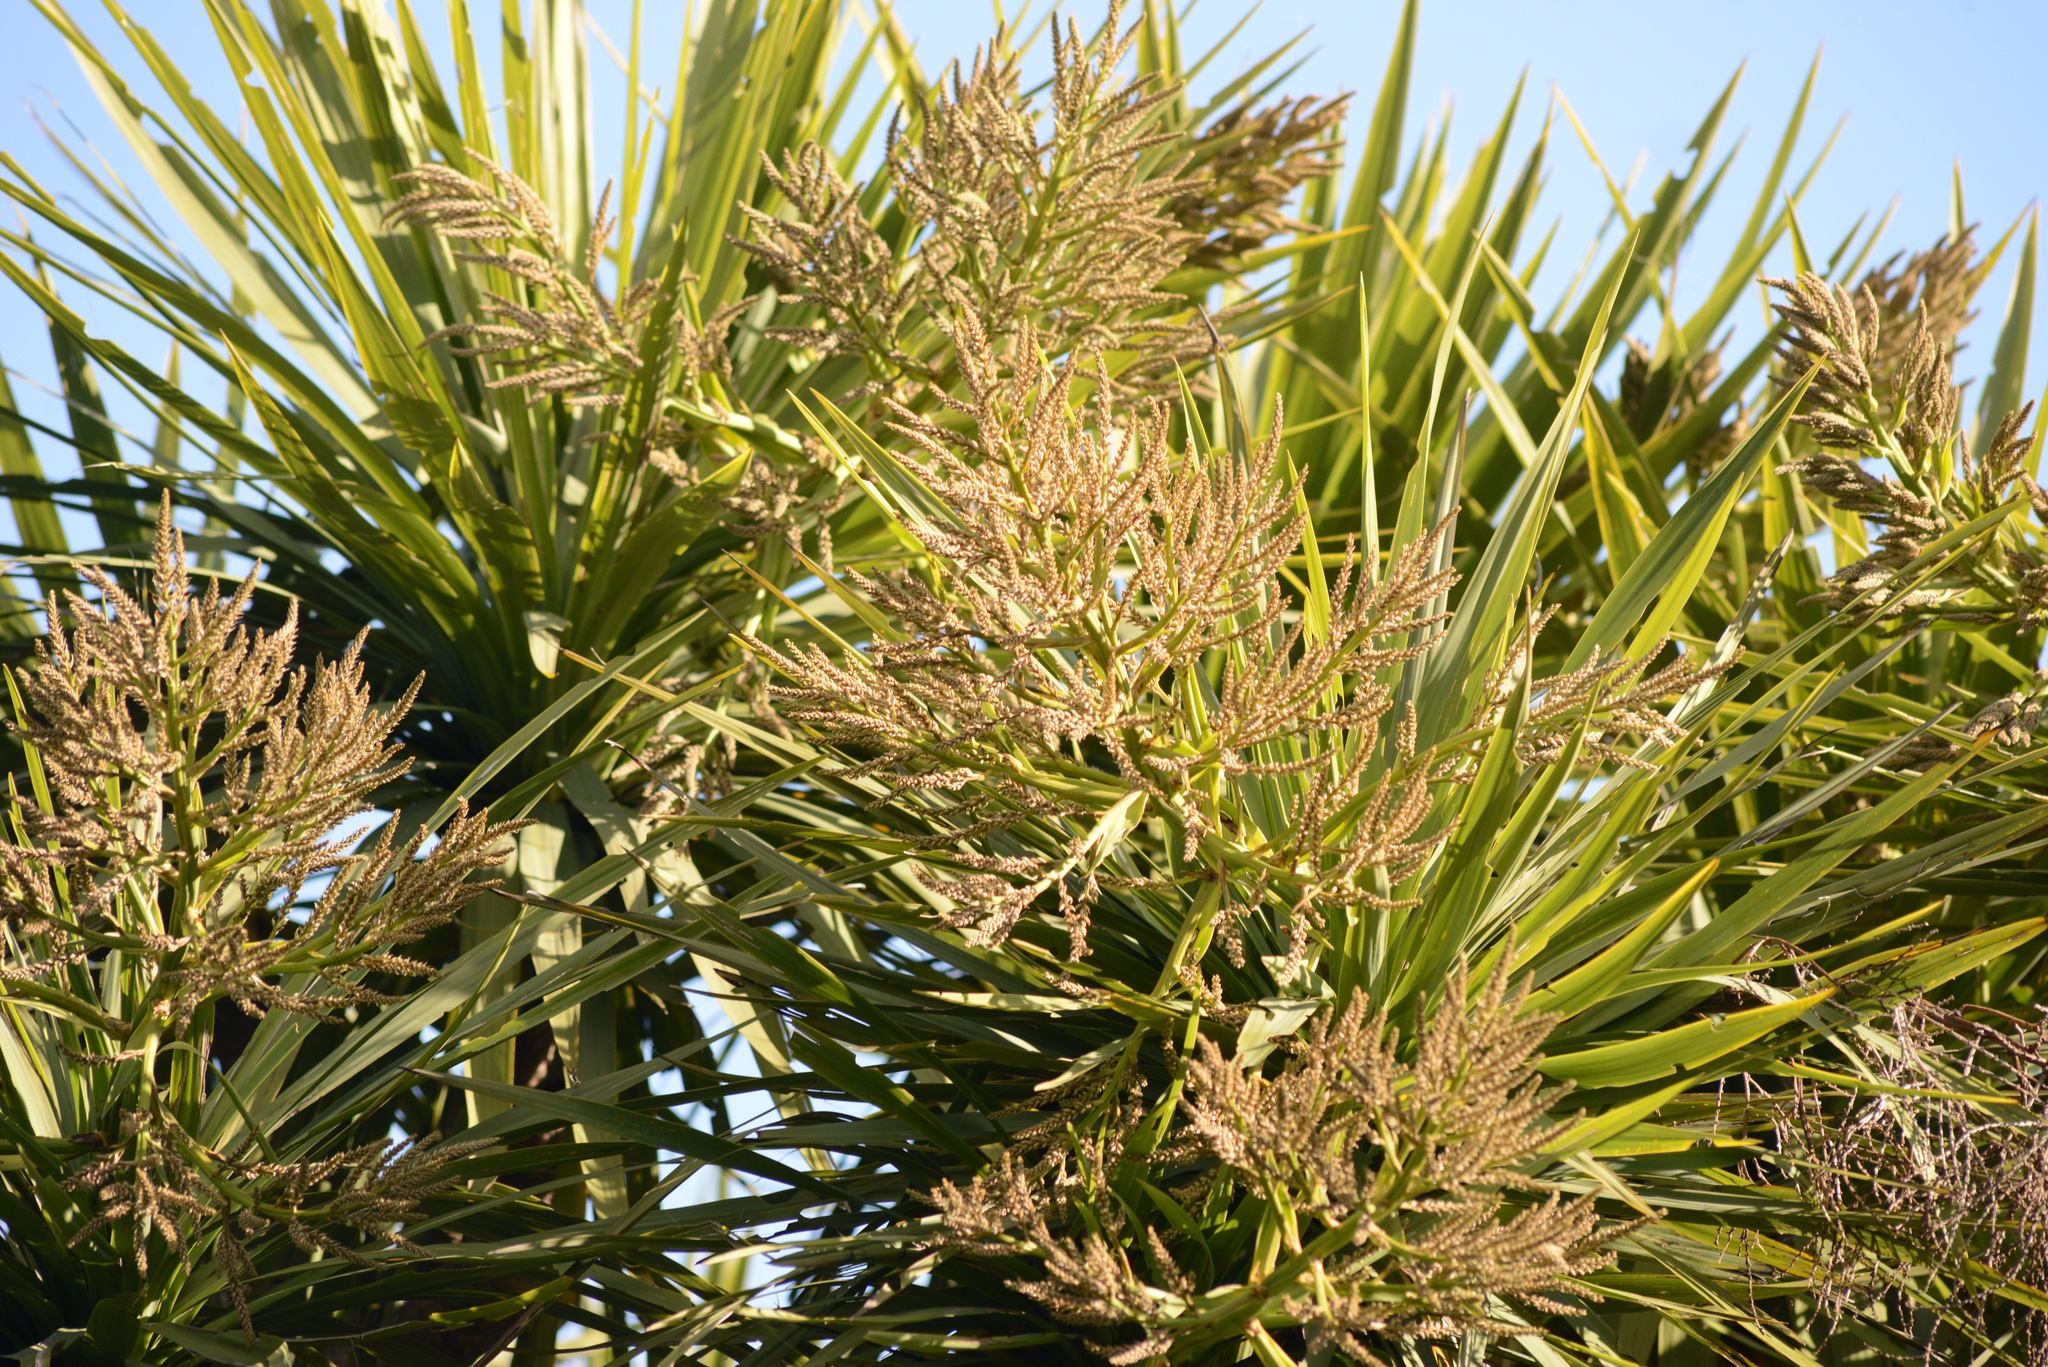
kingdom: Plantae
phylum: Tracheophyta
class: Liliopsida
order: Asparagales
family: Asparagaceae
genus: Cordyline
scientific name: Cordyline australis
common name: Cabbage-palm
